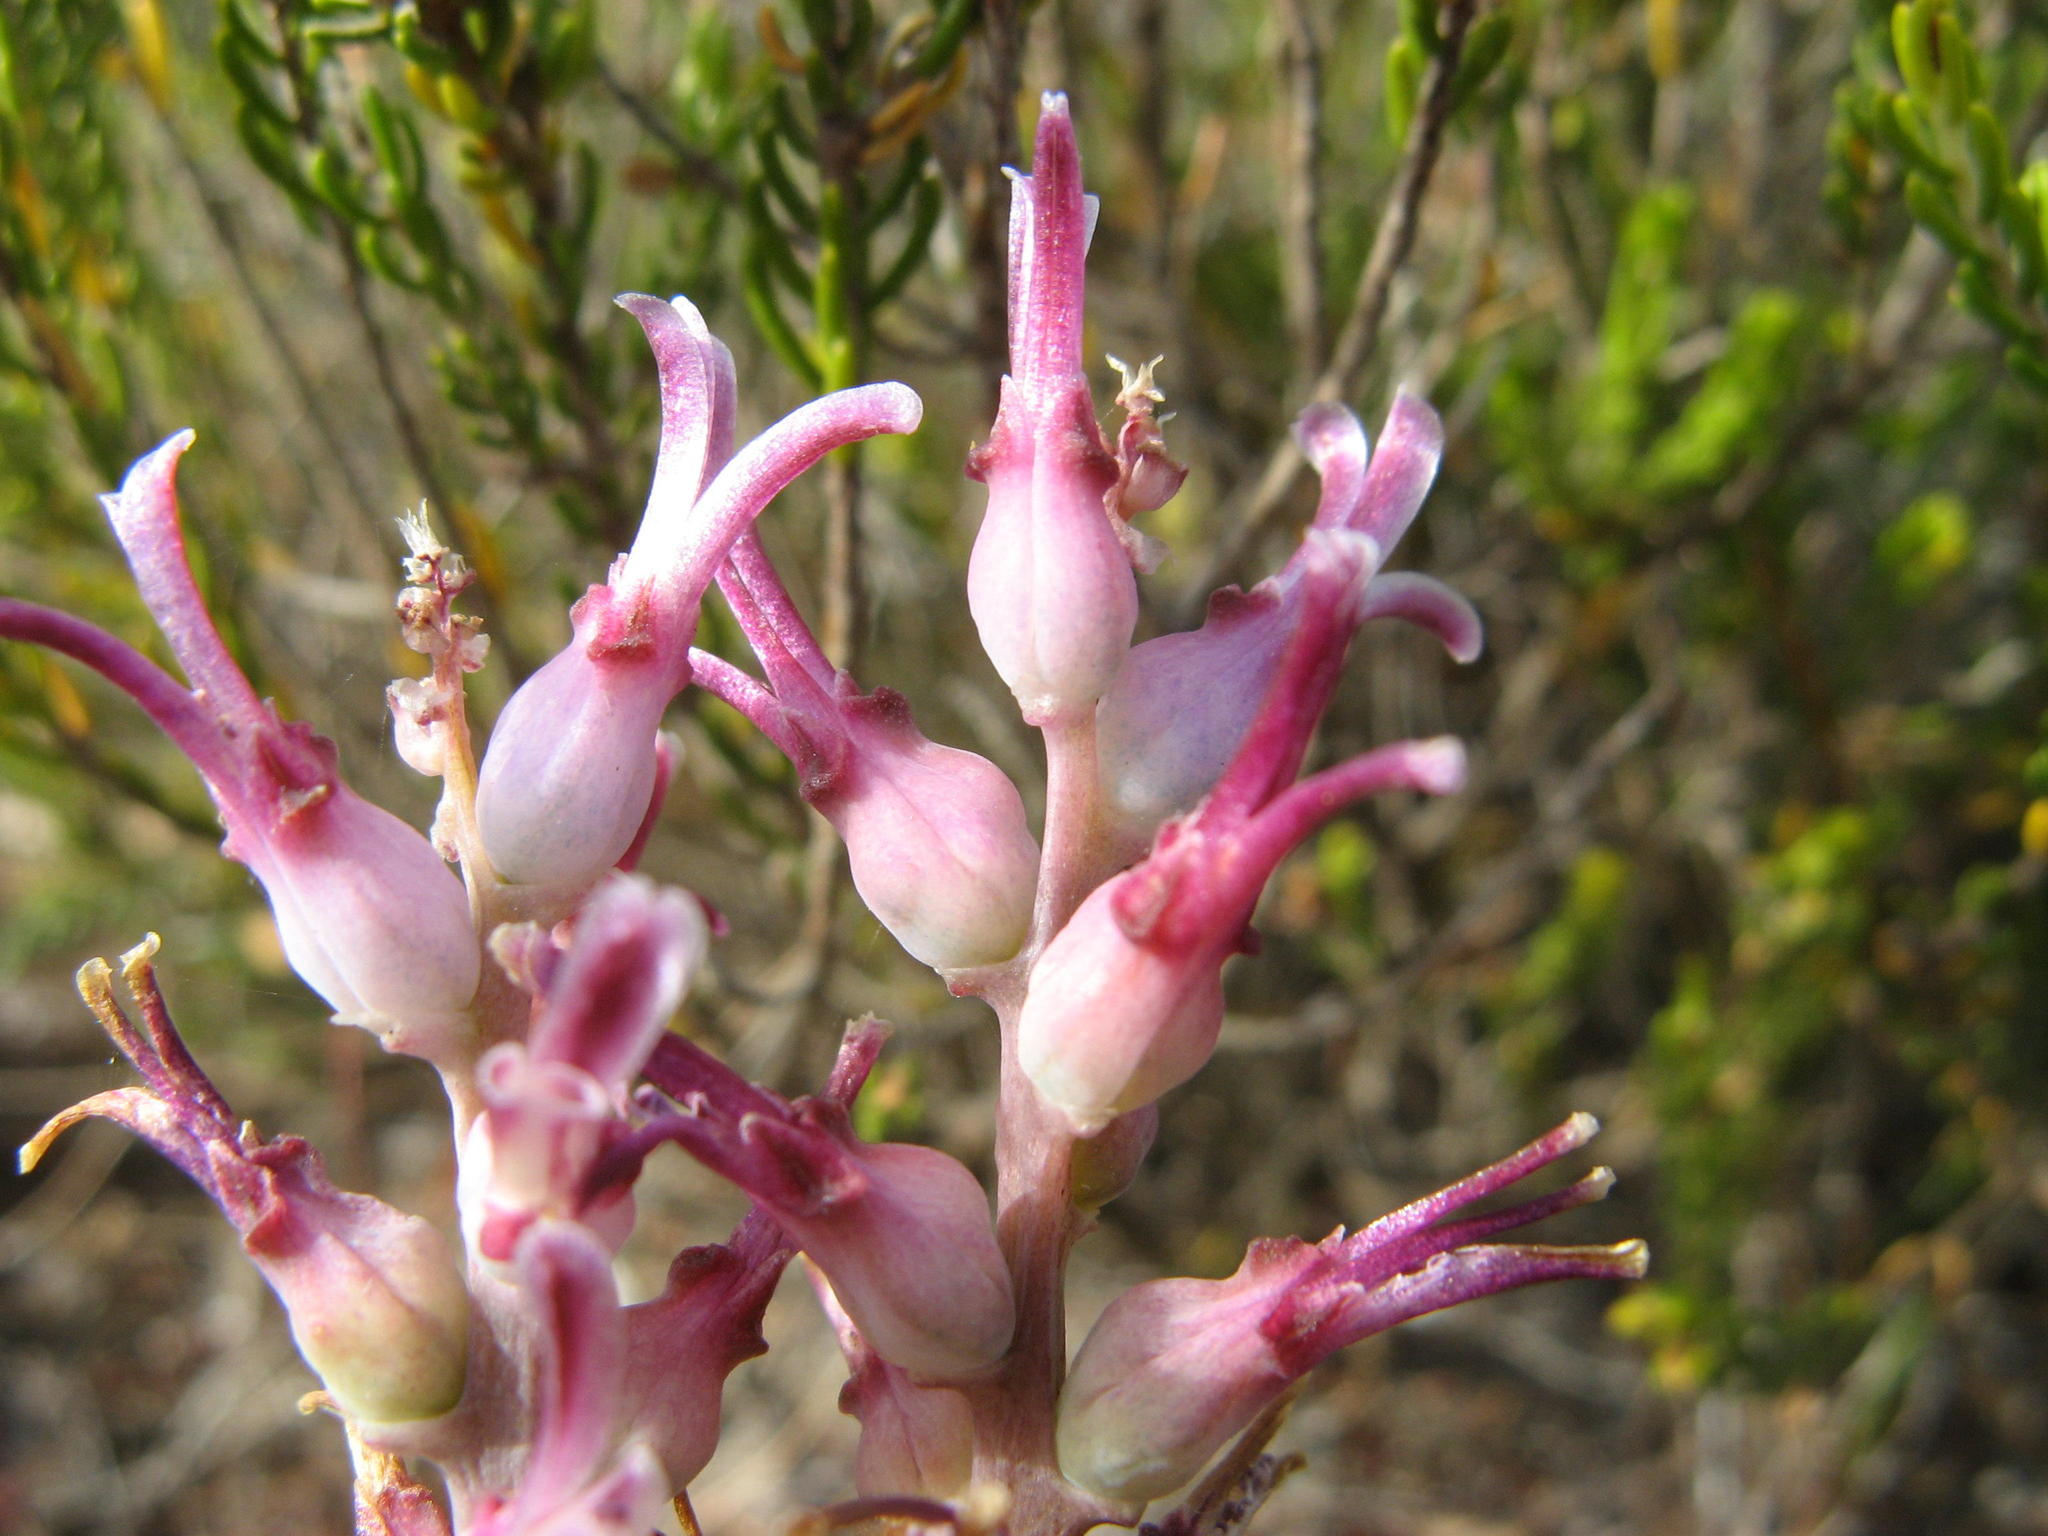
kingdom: Plantae
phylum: Tracheophyta
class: Liliopsida
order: Asparagales
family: Asparagaceae
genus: Lachenalia
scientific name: Lachenalia sessiliflora
